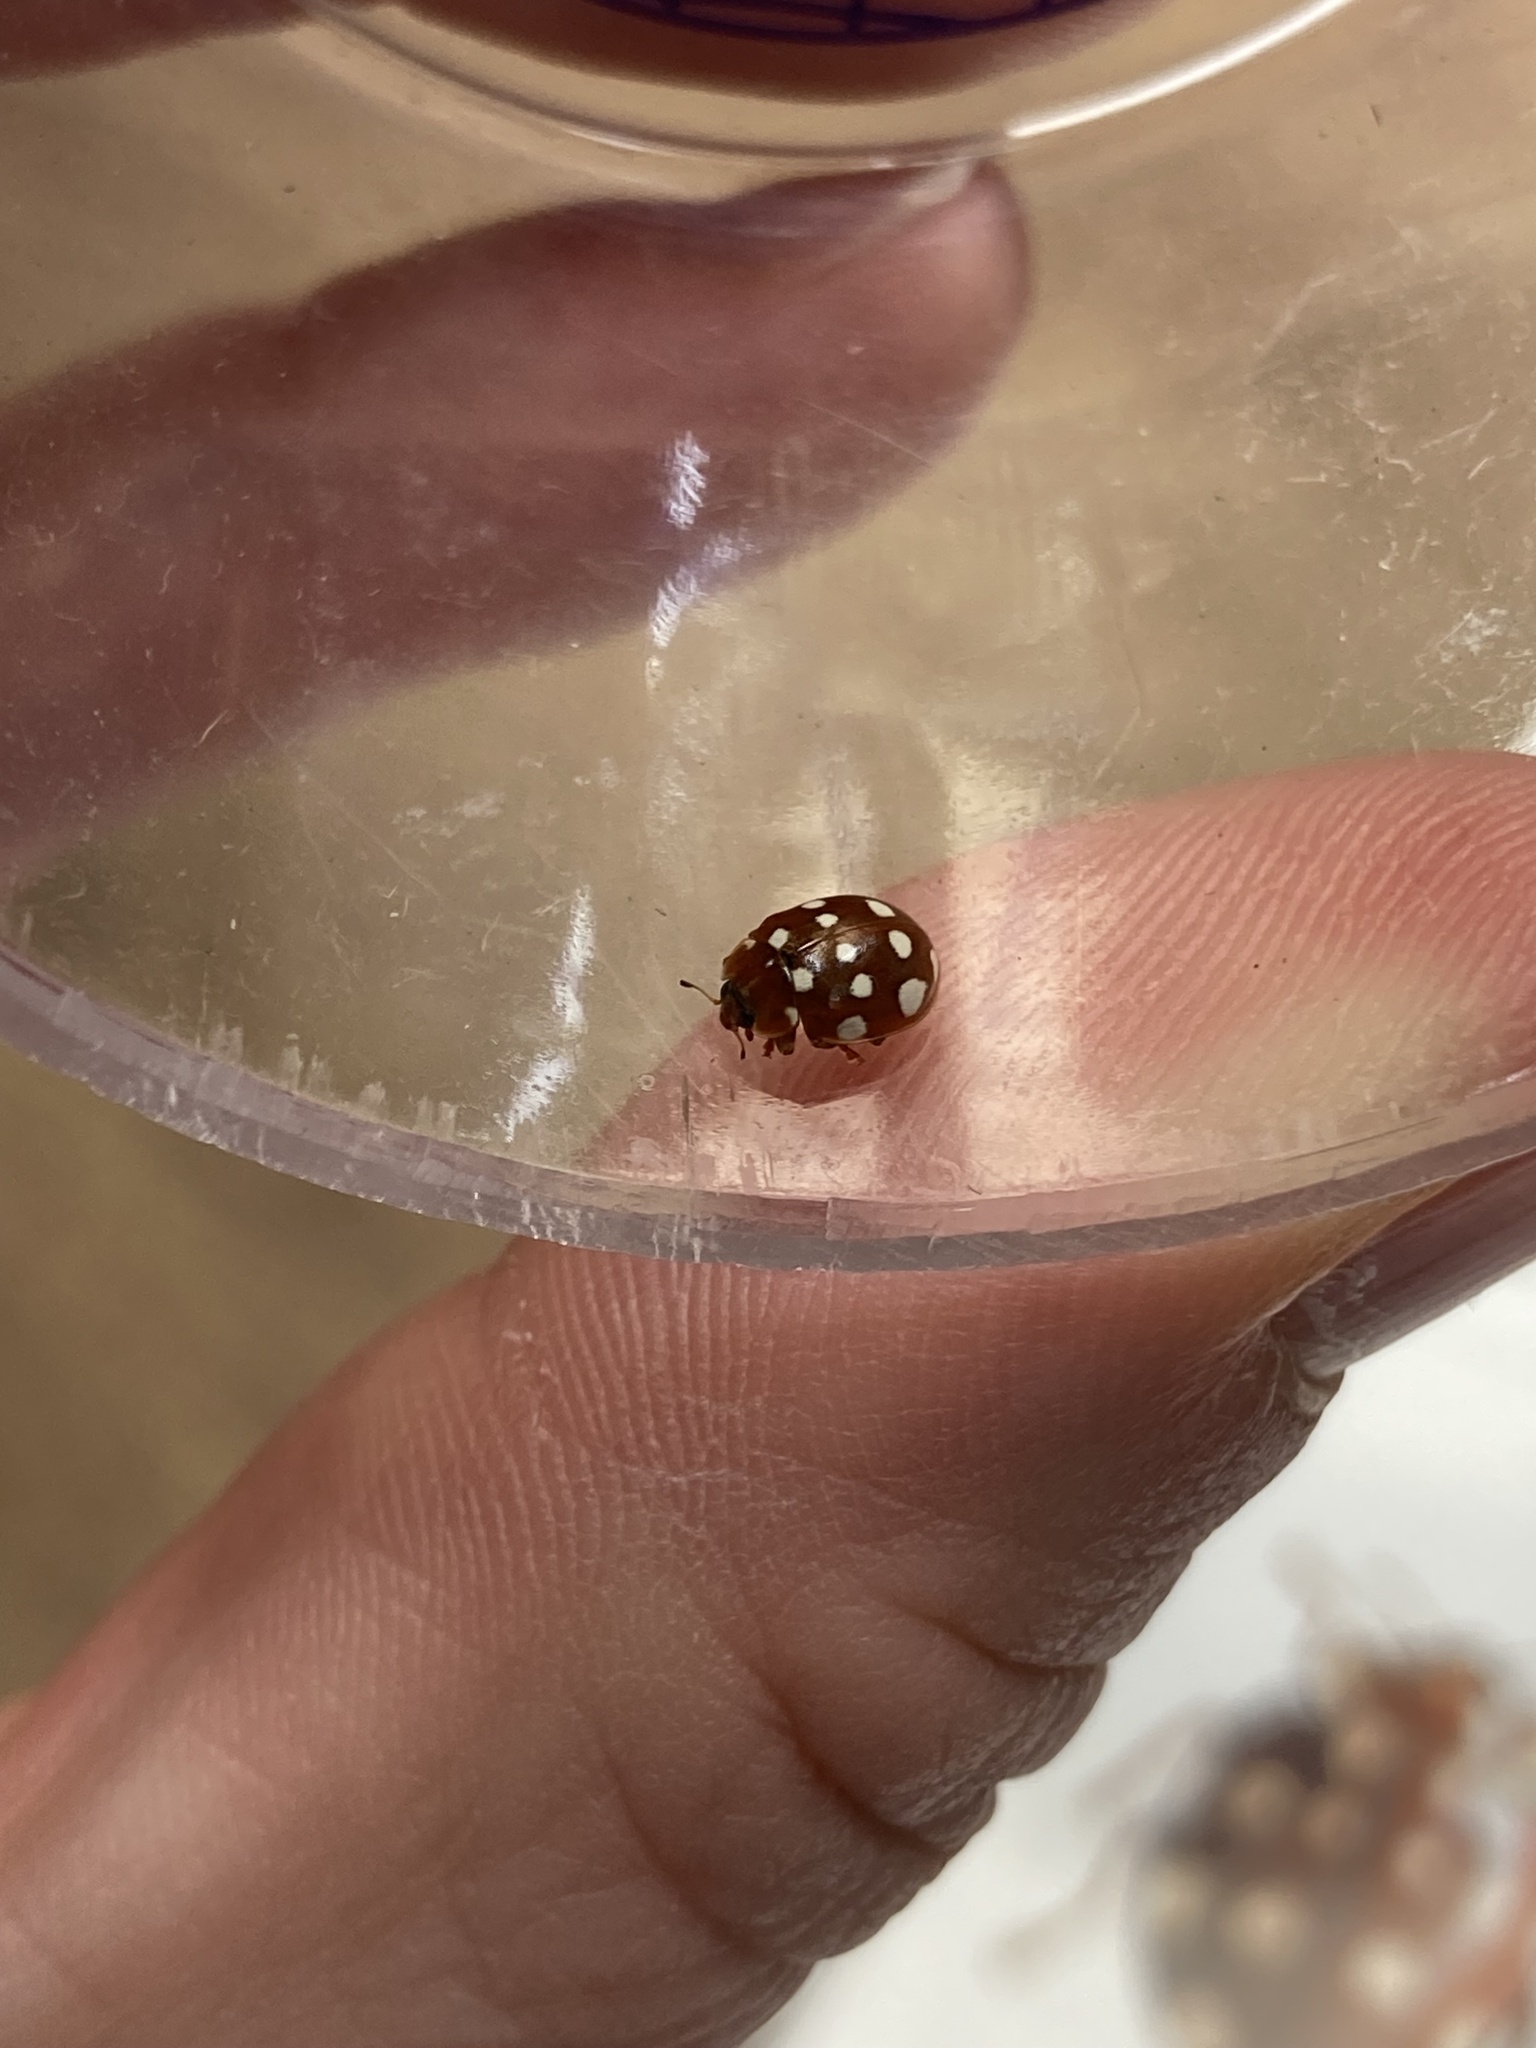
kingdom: Animalia
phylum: Arthropoda
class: Insecta
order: Coleoptera
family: Coccinellidae
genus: Calvia
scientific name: Calvia quatuordecimguttata
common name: Cream-spot ladybird
